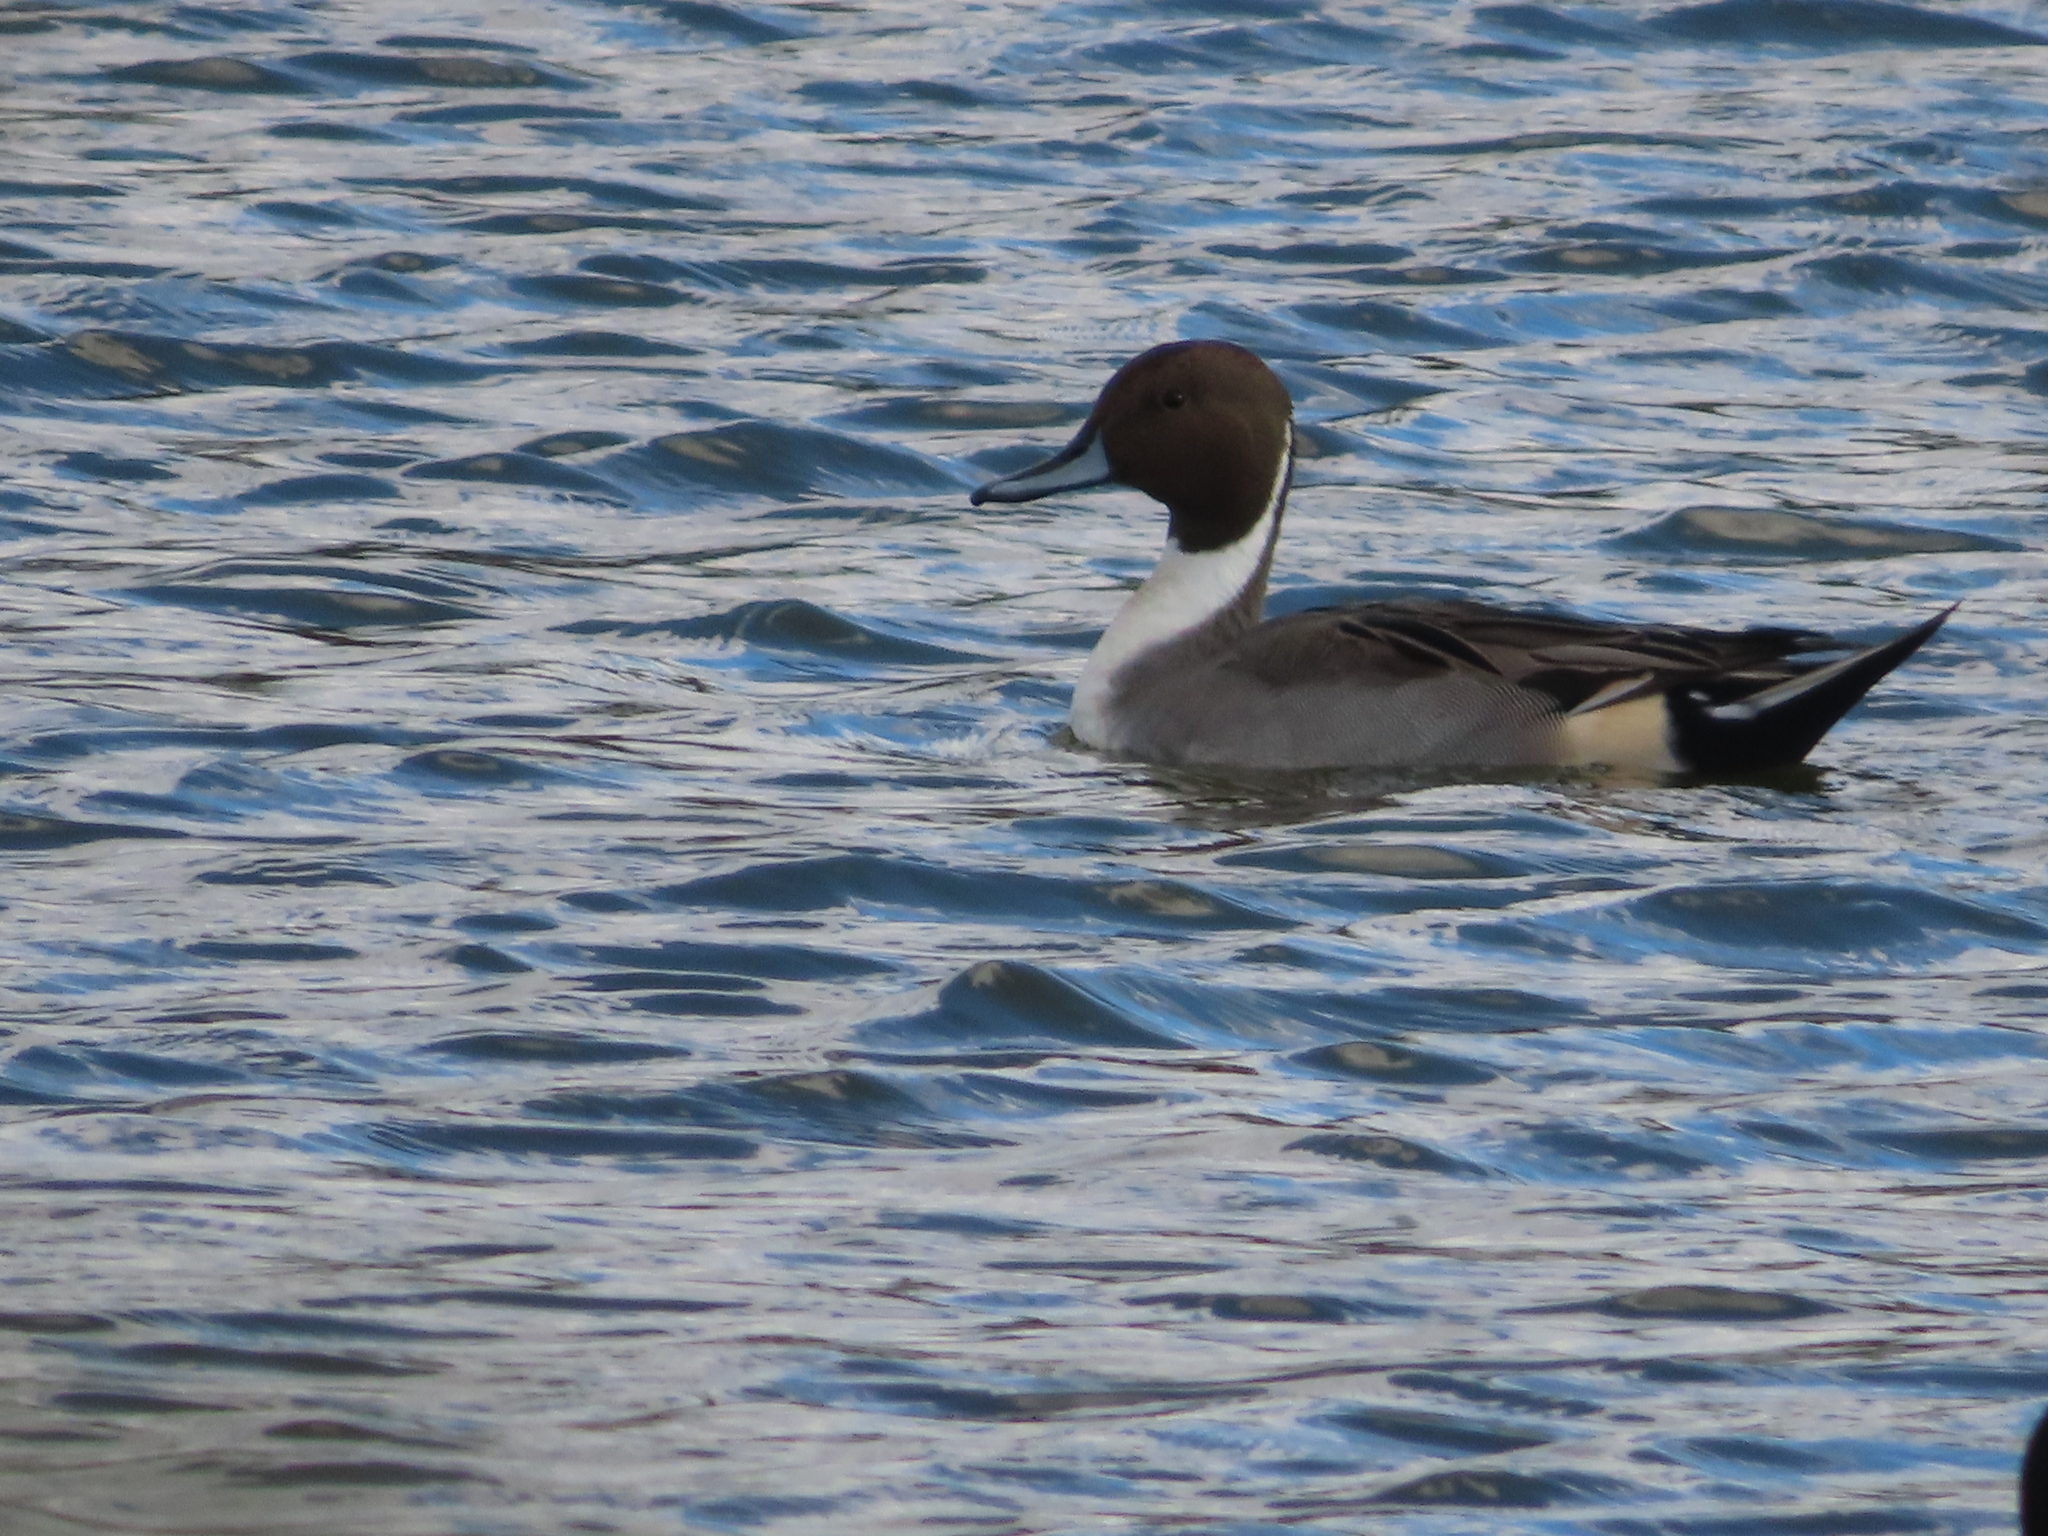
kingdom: Animalia
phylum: Chordata
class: Aves
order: Anseriformes
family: Anatidae
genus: Anas
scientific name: Anas acuta
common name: Northern pintail
